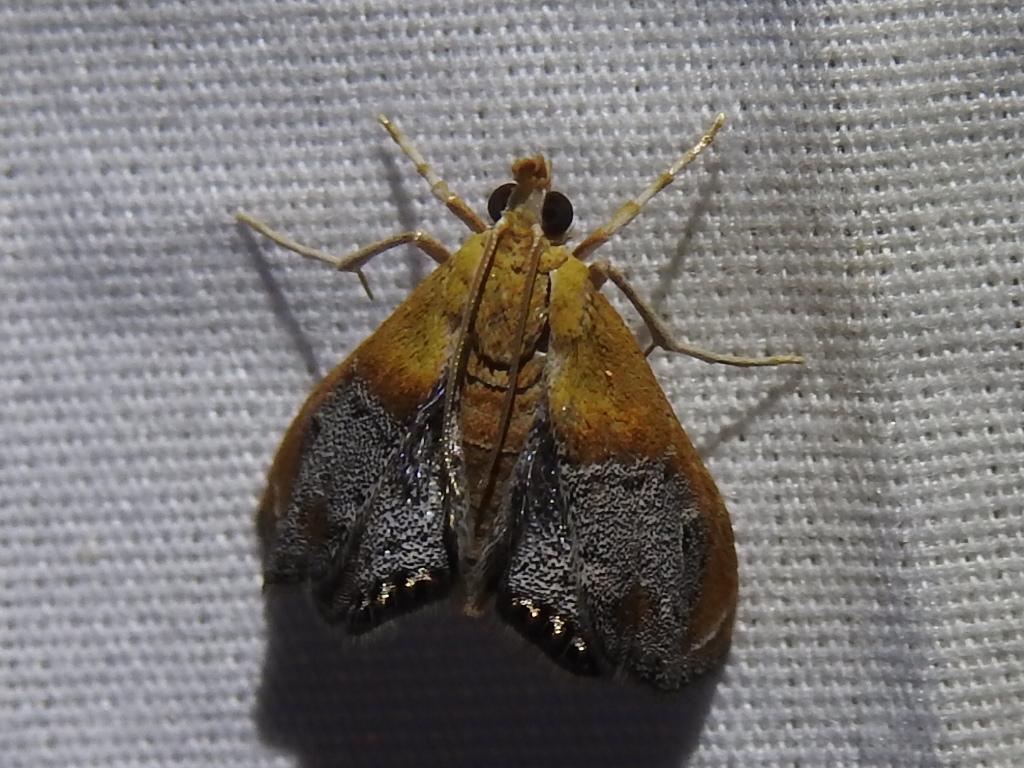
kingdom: Animalia
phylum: Arthropoda
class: Insecta
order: Lepidoptera
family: Crambidae
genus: Chalcoela
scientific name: Chalcoela iphitalis
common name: Sooty-winged chalcoela moth
